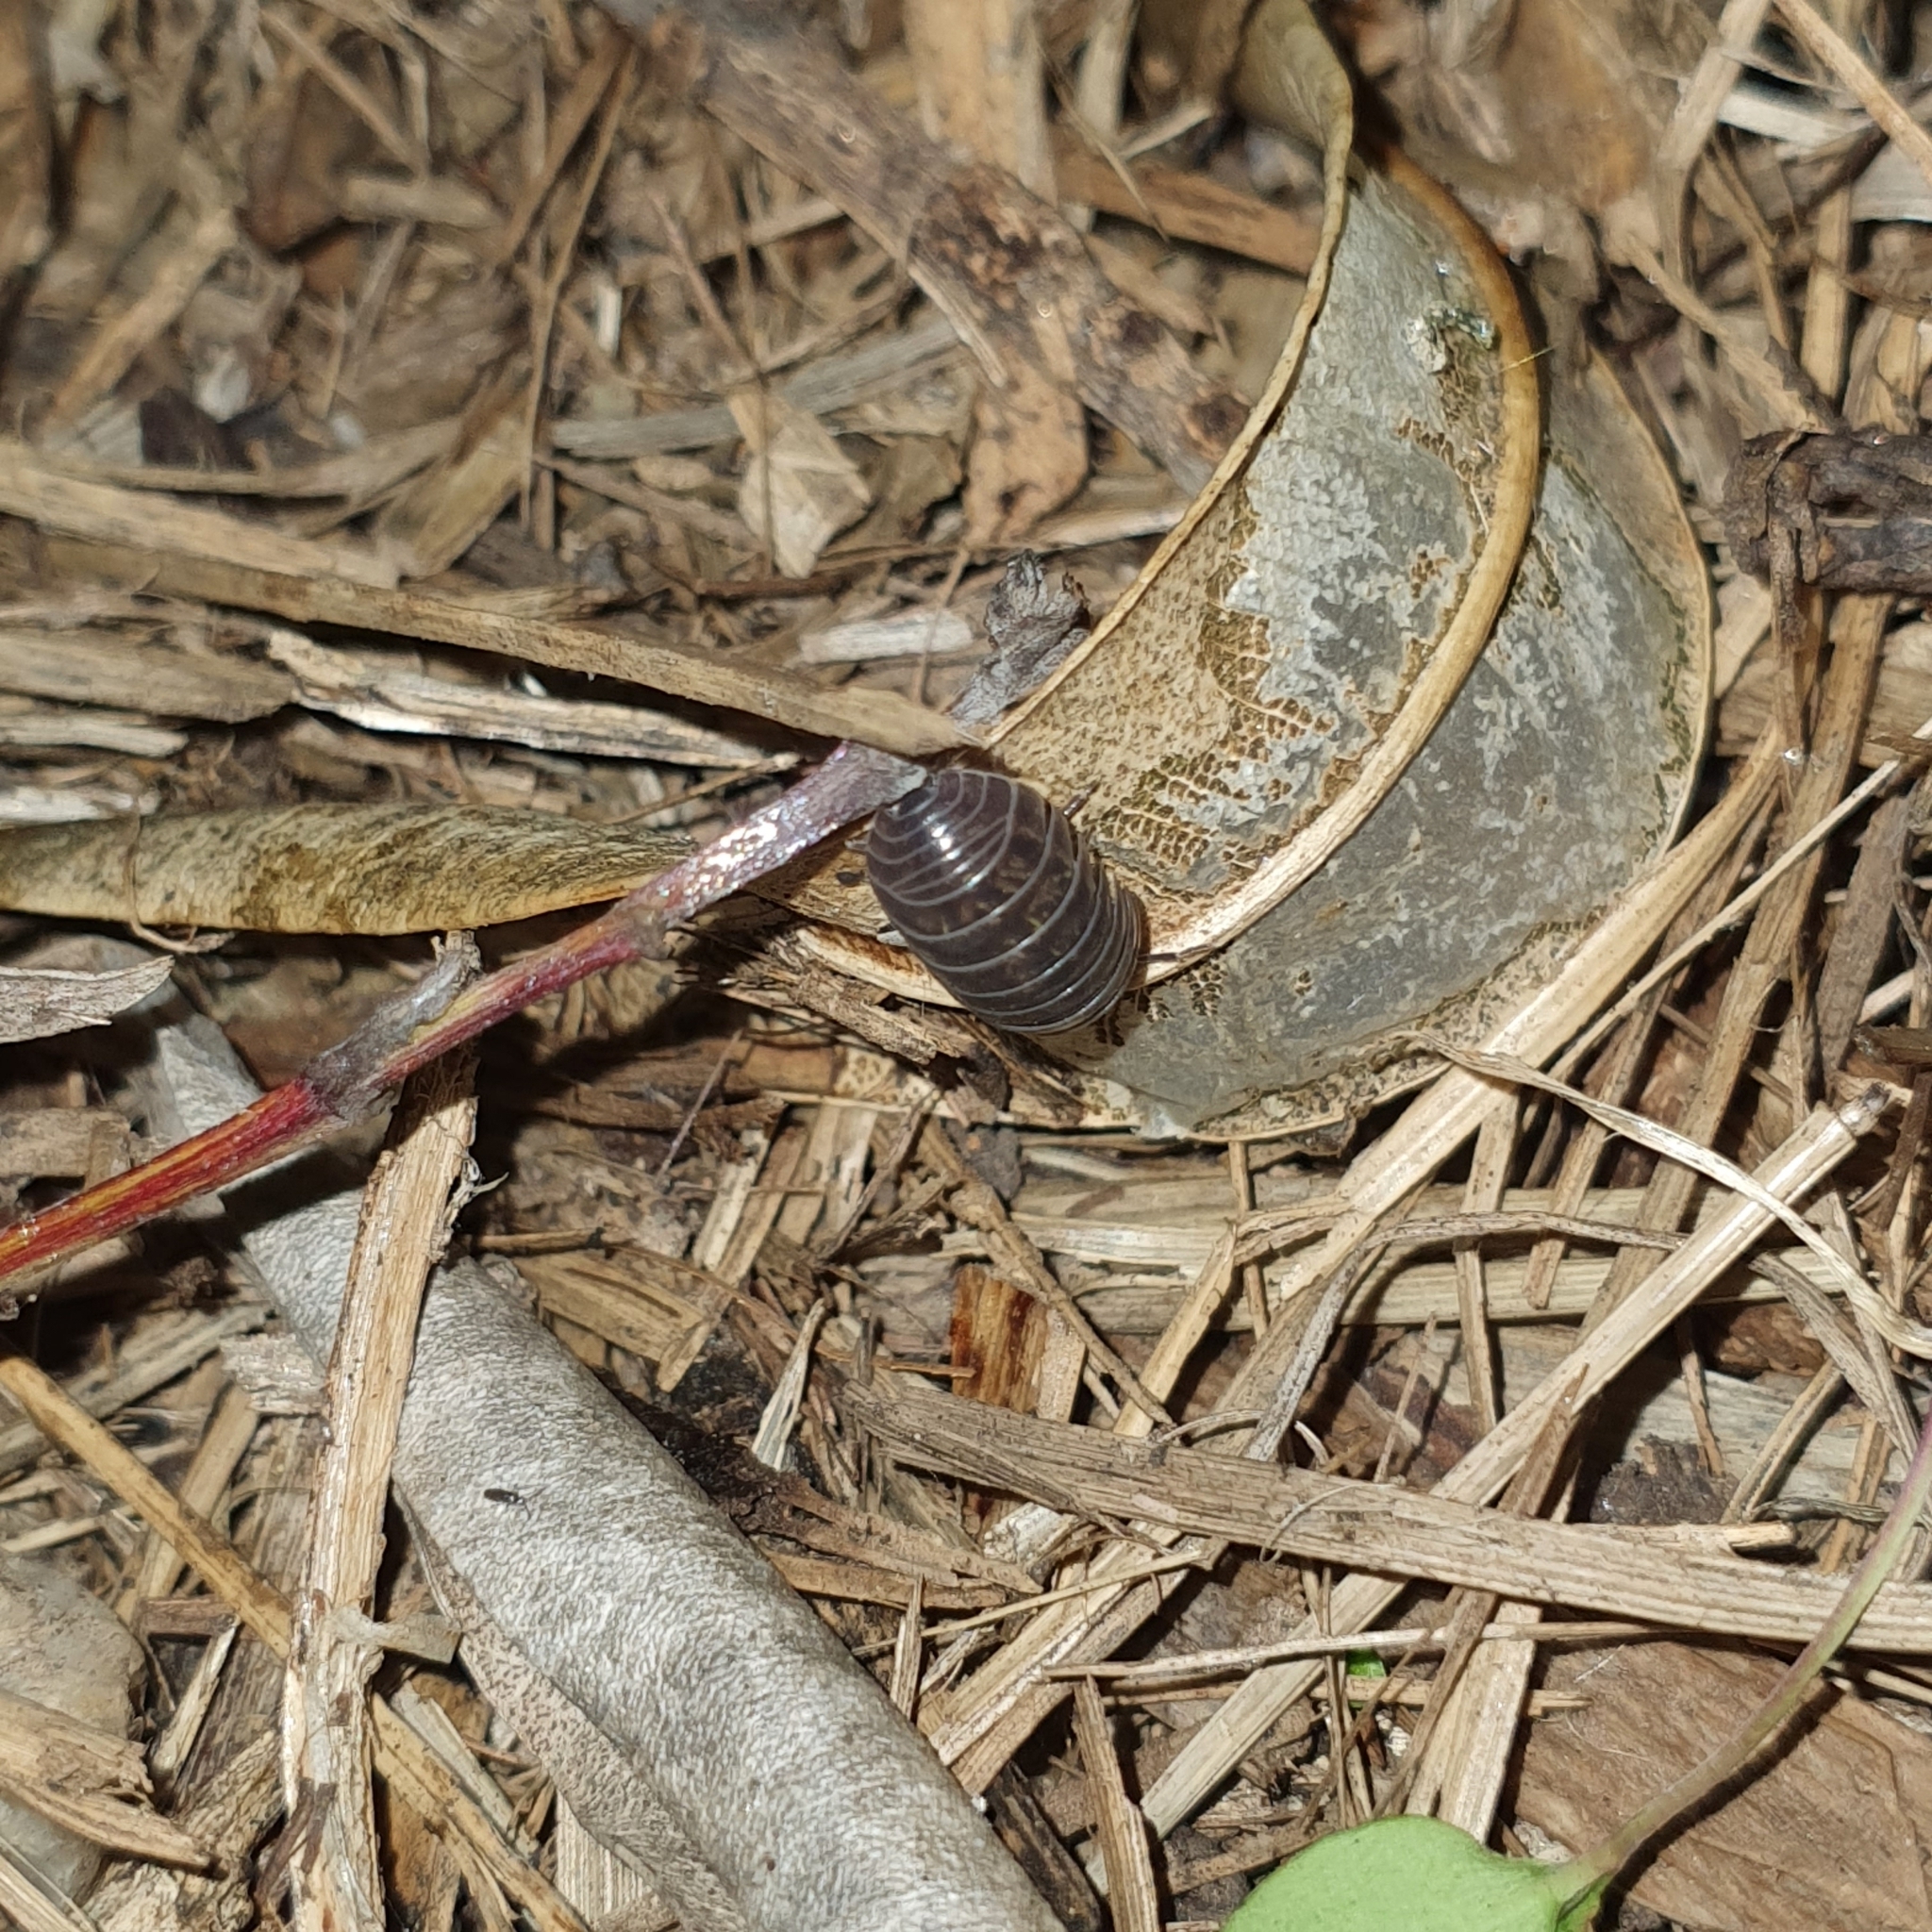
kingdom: Animalia
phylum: Arthropoda
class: Malacostraca
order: Isopoda
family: Armadillidiidae
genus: Armadillidium
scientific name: Armadillidium vulgare
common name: Common pill woodlouse
